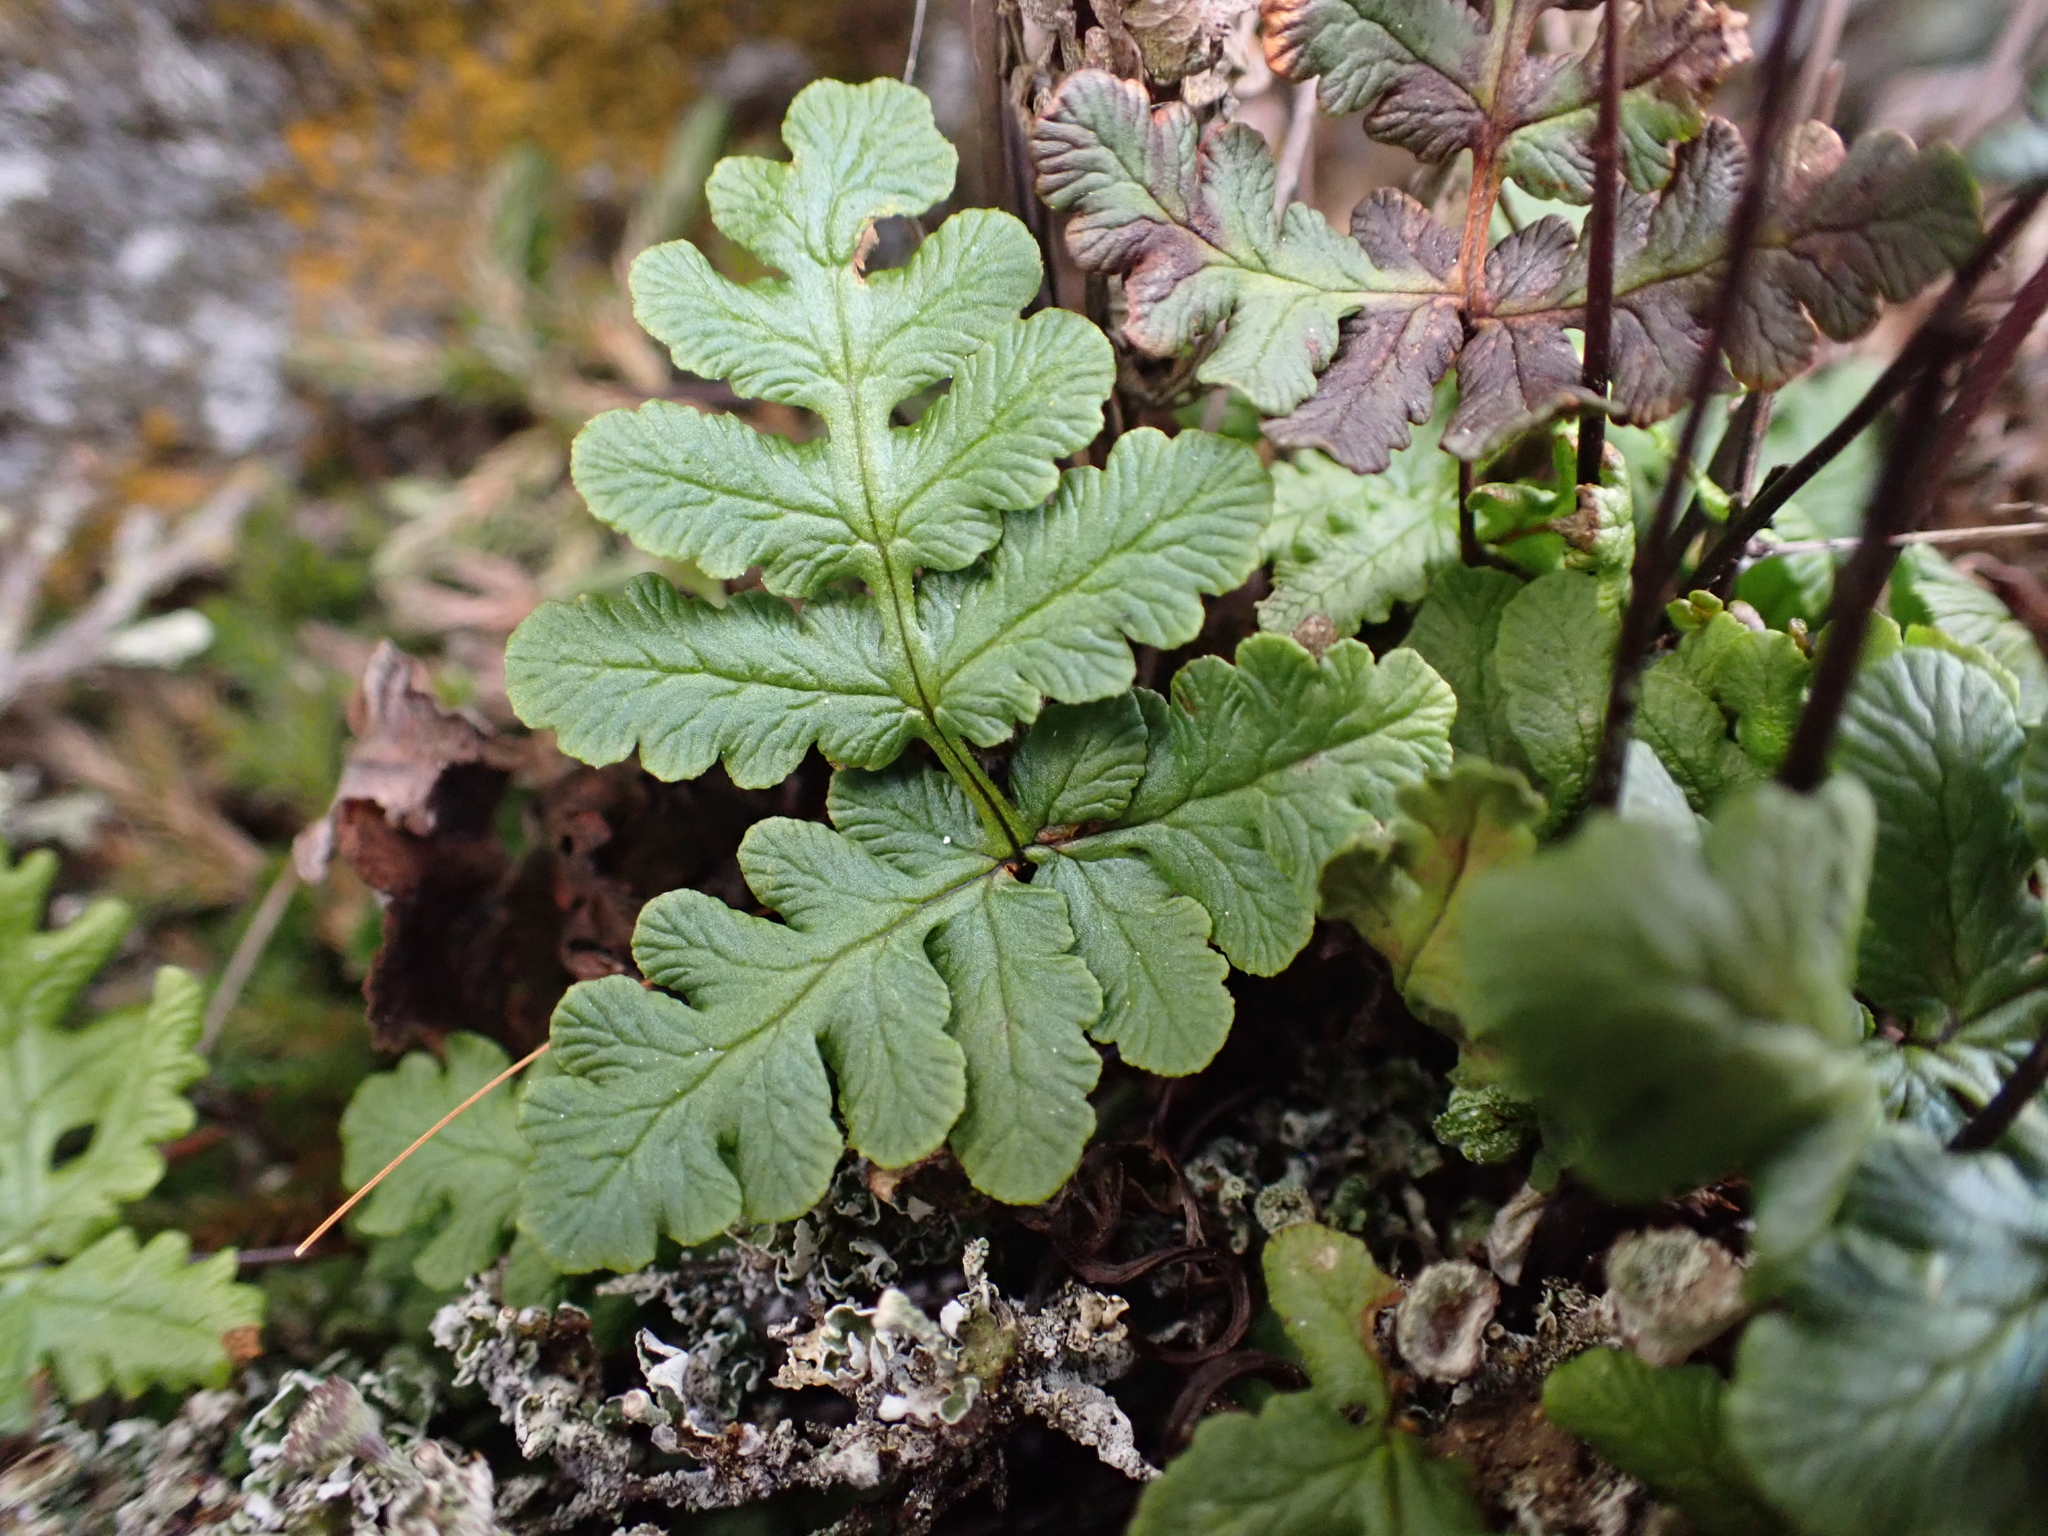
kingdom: Plantae
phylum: Tracheophyta
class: Polypodiopsida
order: Polypodiales
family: Pteridaceae
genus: Pentagramma
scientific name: Pentagramma triangularis
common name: Gold fern
